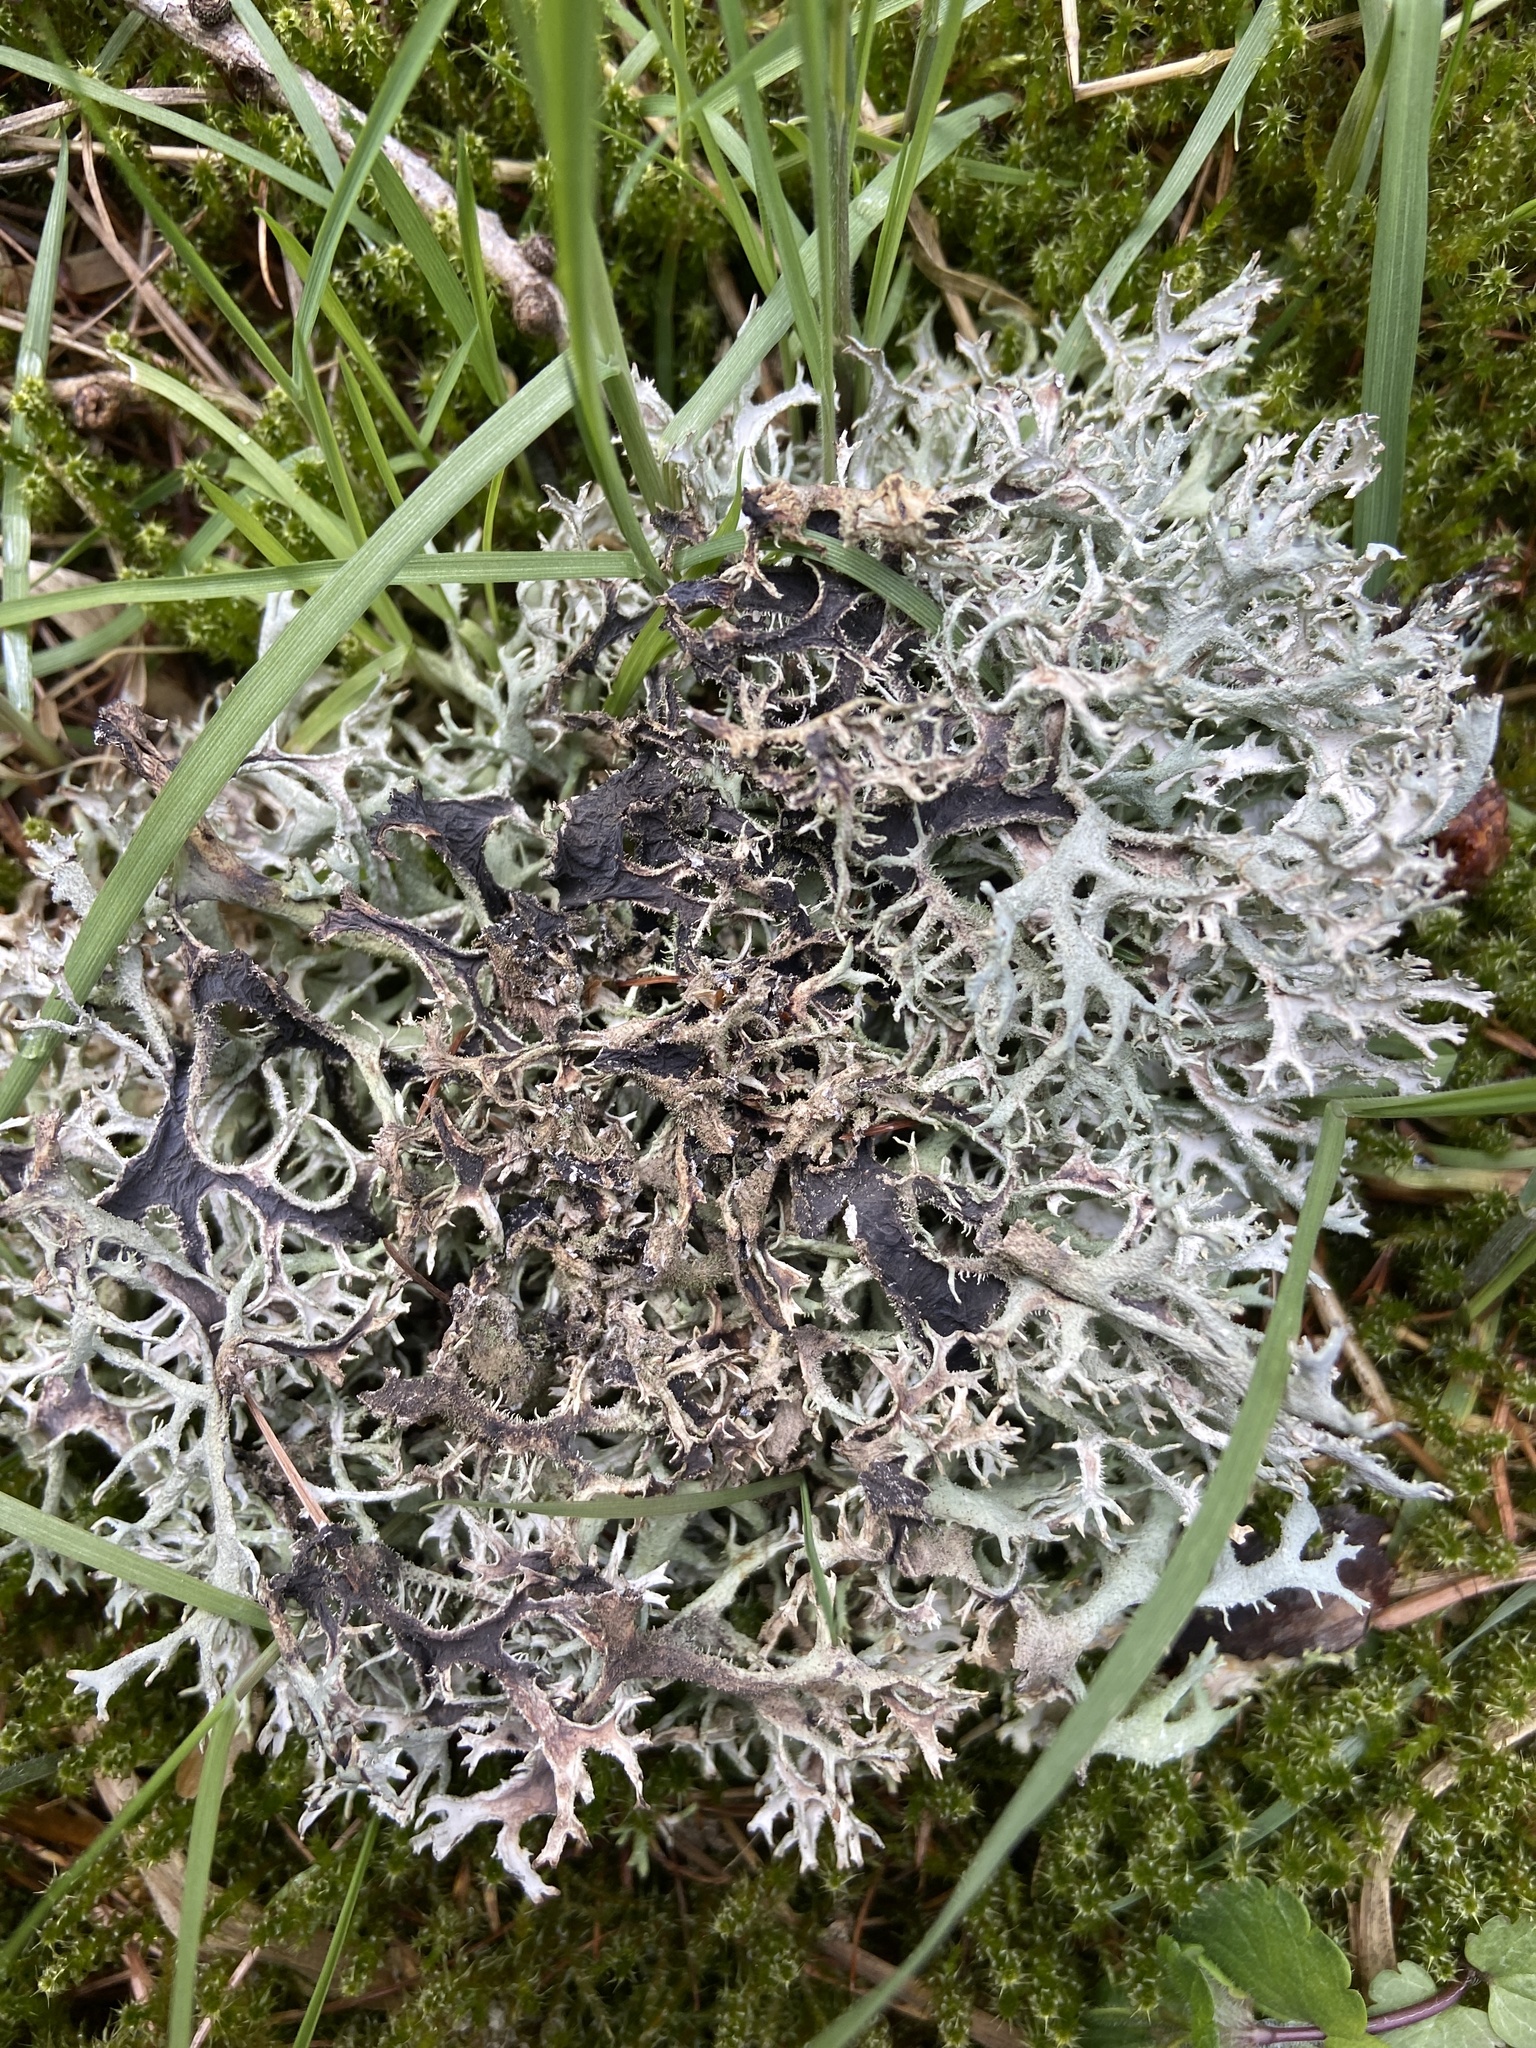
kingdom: Fungi
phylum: Ascomycota
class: Lecanoromycetes
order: Lecanorales
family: Parmeliaceae
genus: Pseudevernia
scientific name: Pseudevernia furfuracea
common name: Tree moss
